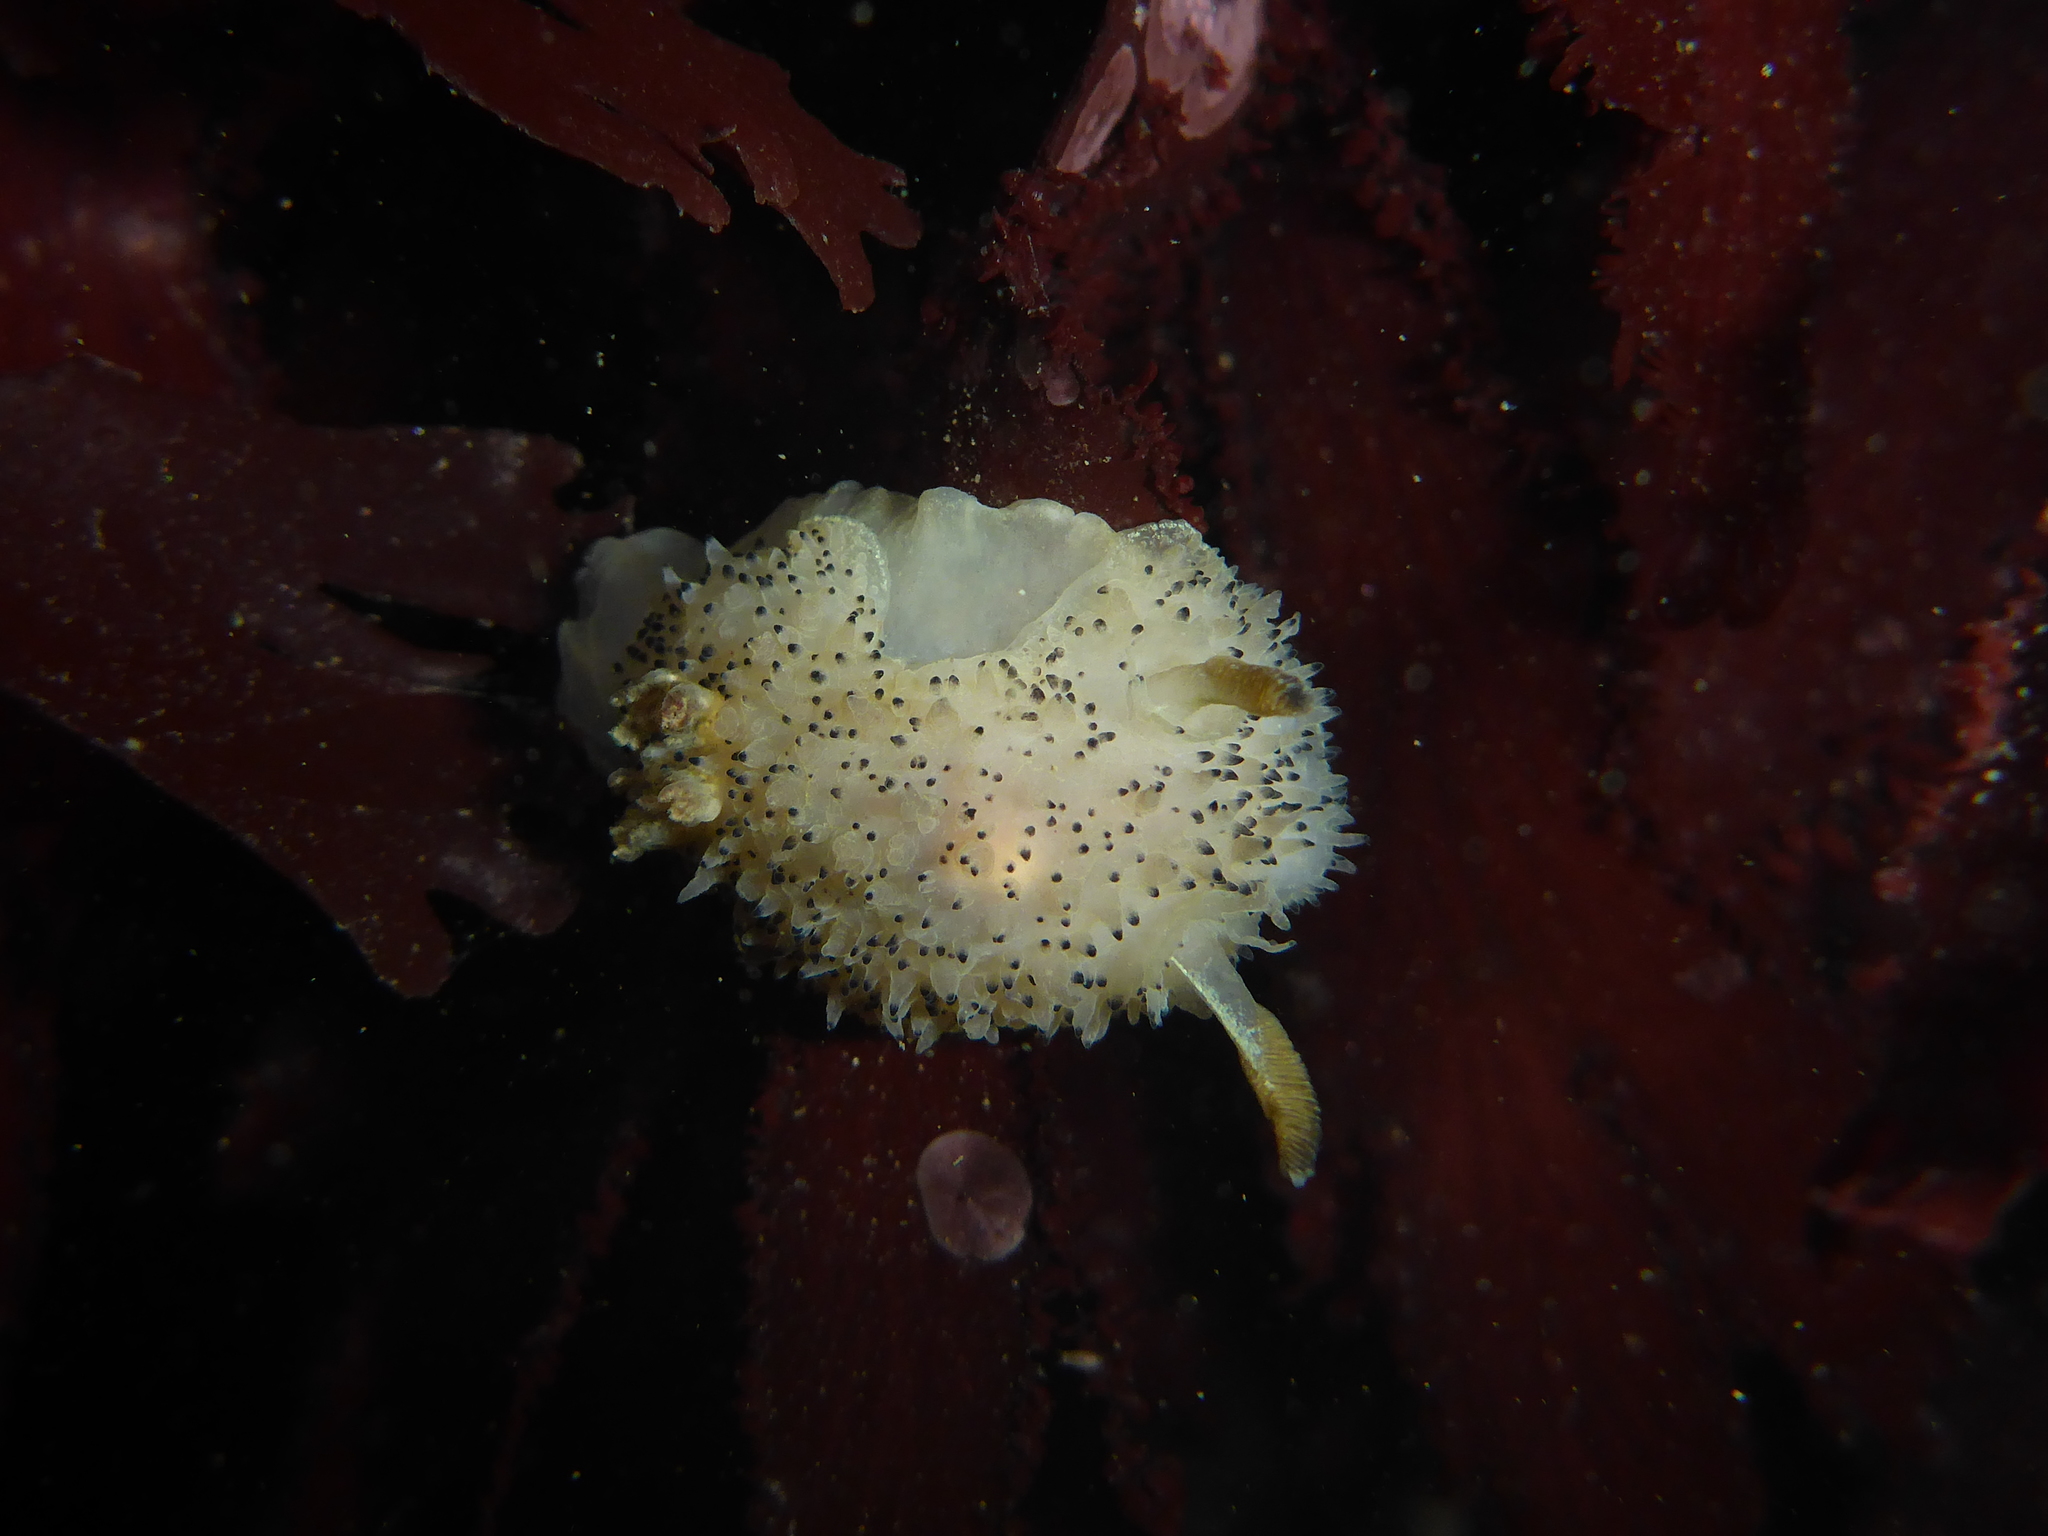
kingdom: Animalia
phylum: Mollusca
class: Gastropoda
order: Nudibranchia
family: Onchidorididae
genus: Acanthodoris
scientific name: Acanthodoris rhodoceras
